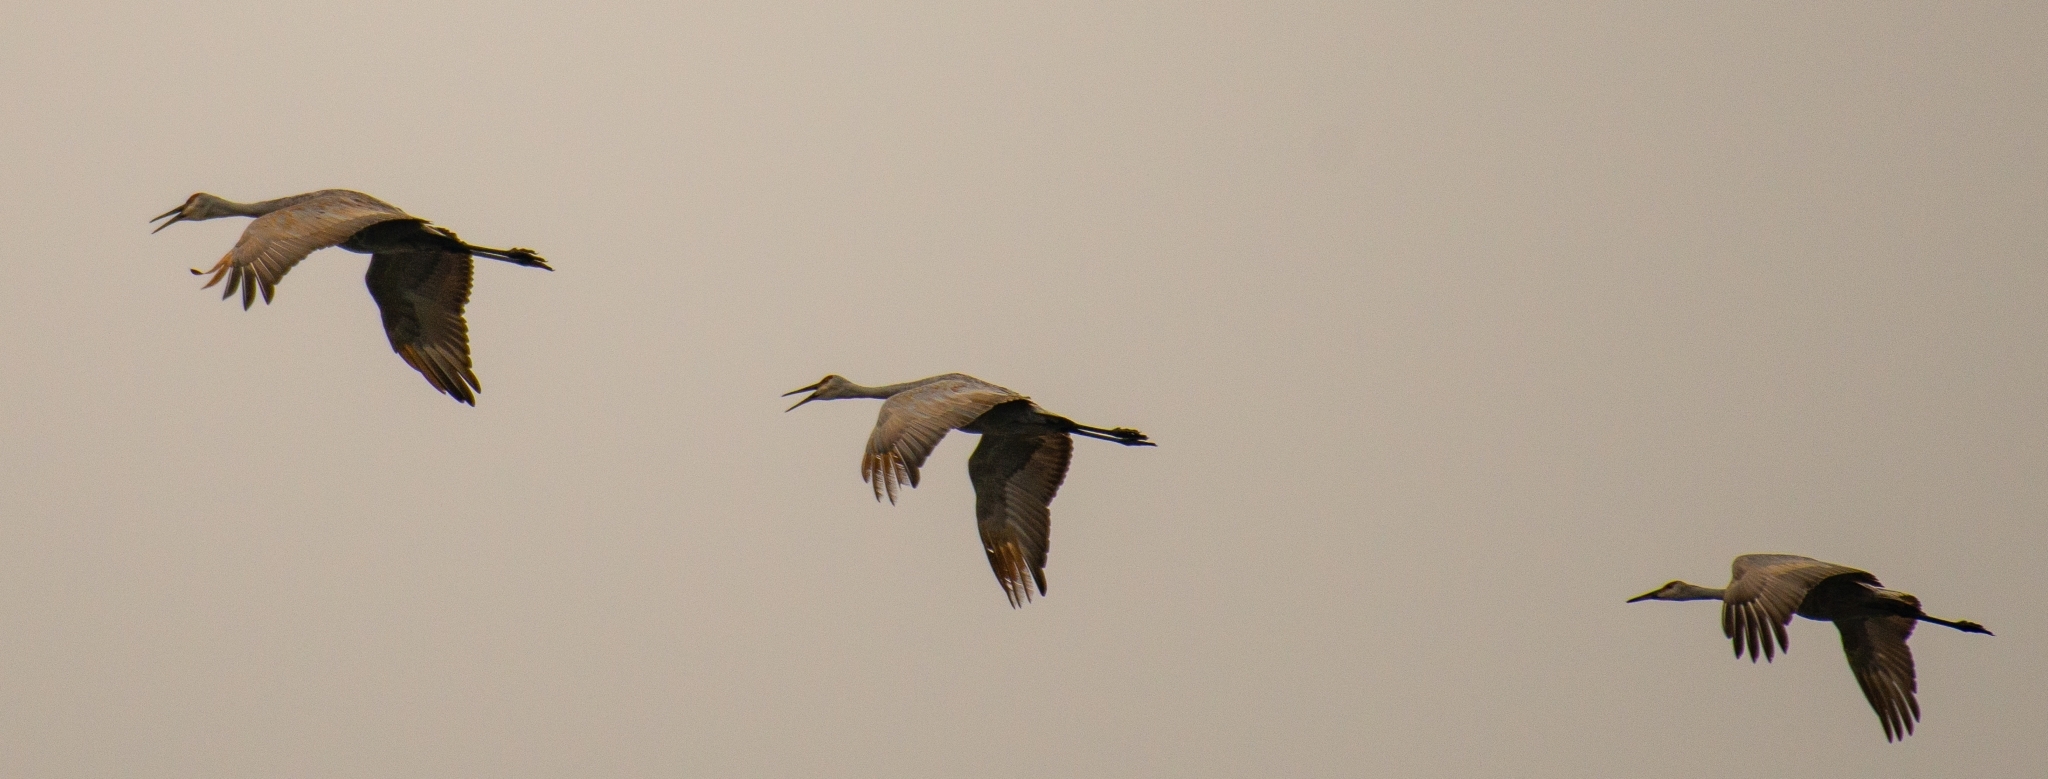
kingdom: Animalia
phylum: Chordata
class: Aves
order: Gruiformes
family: Gruidae
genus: Grus
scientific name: Grus canadensis
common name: Sandhill crane
